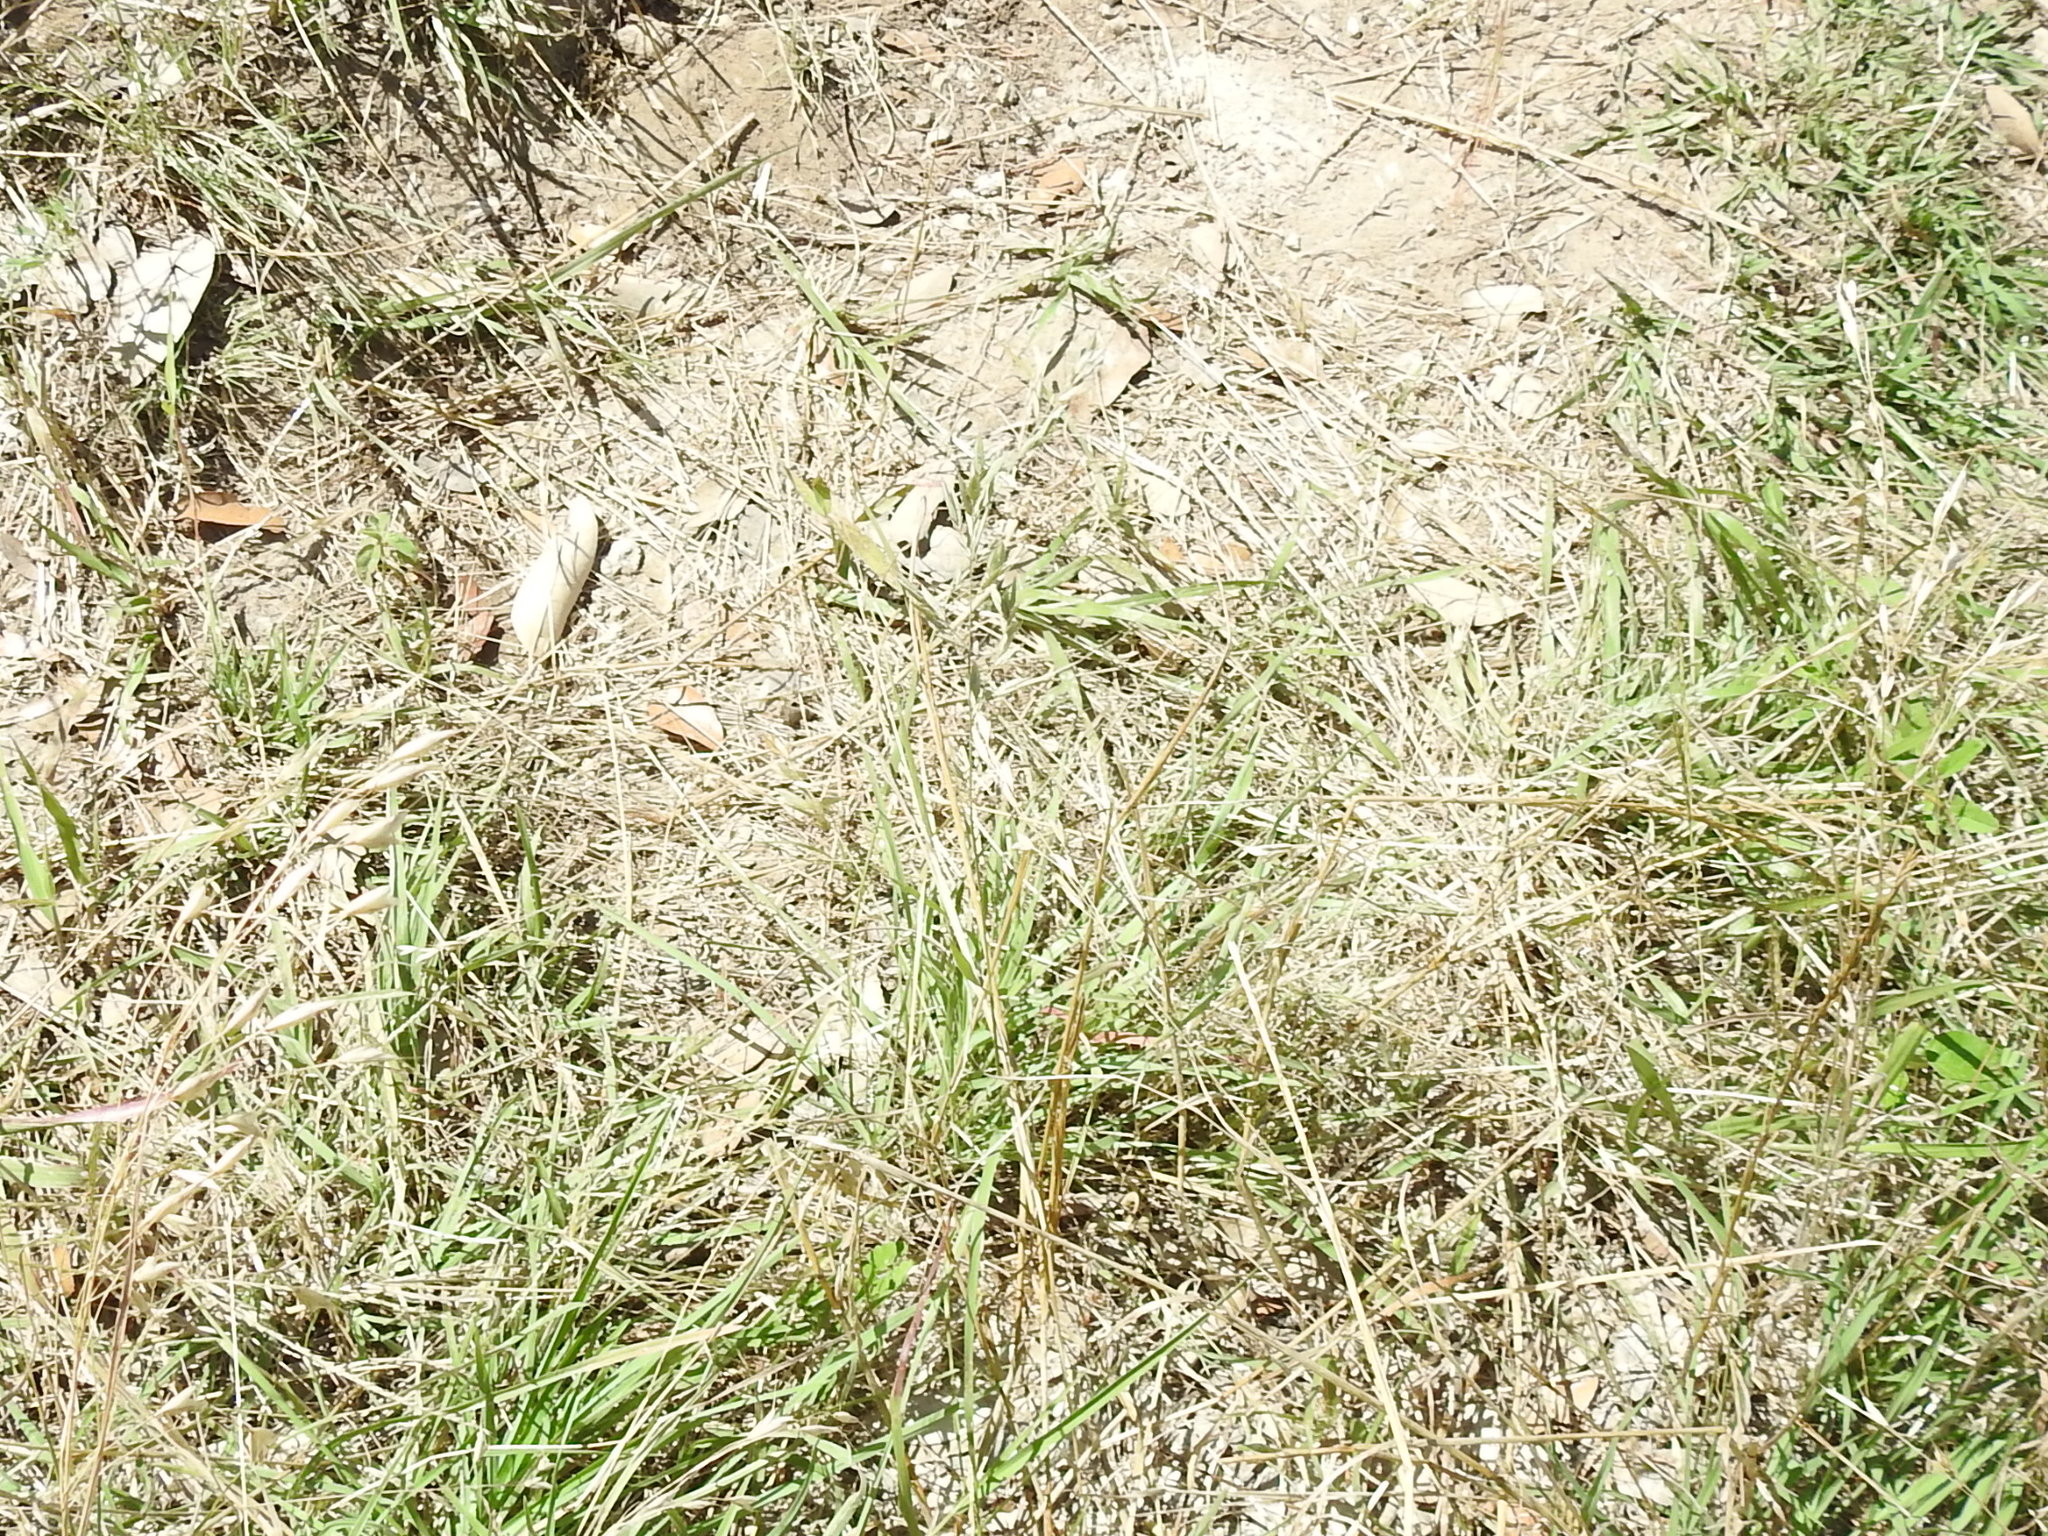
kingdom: Plantae
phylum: Tracheophyta
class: Liliopsida
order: Poales
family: Poaceae
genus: Eragrostis
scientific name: Eragrostis secundiflora
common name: Red love grass
